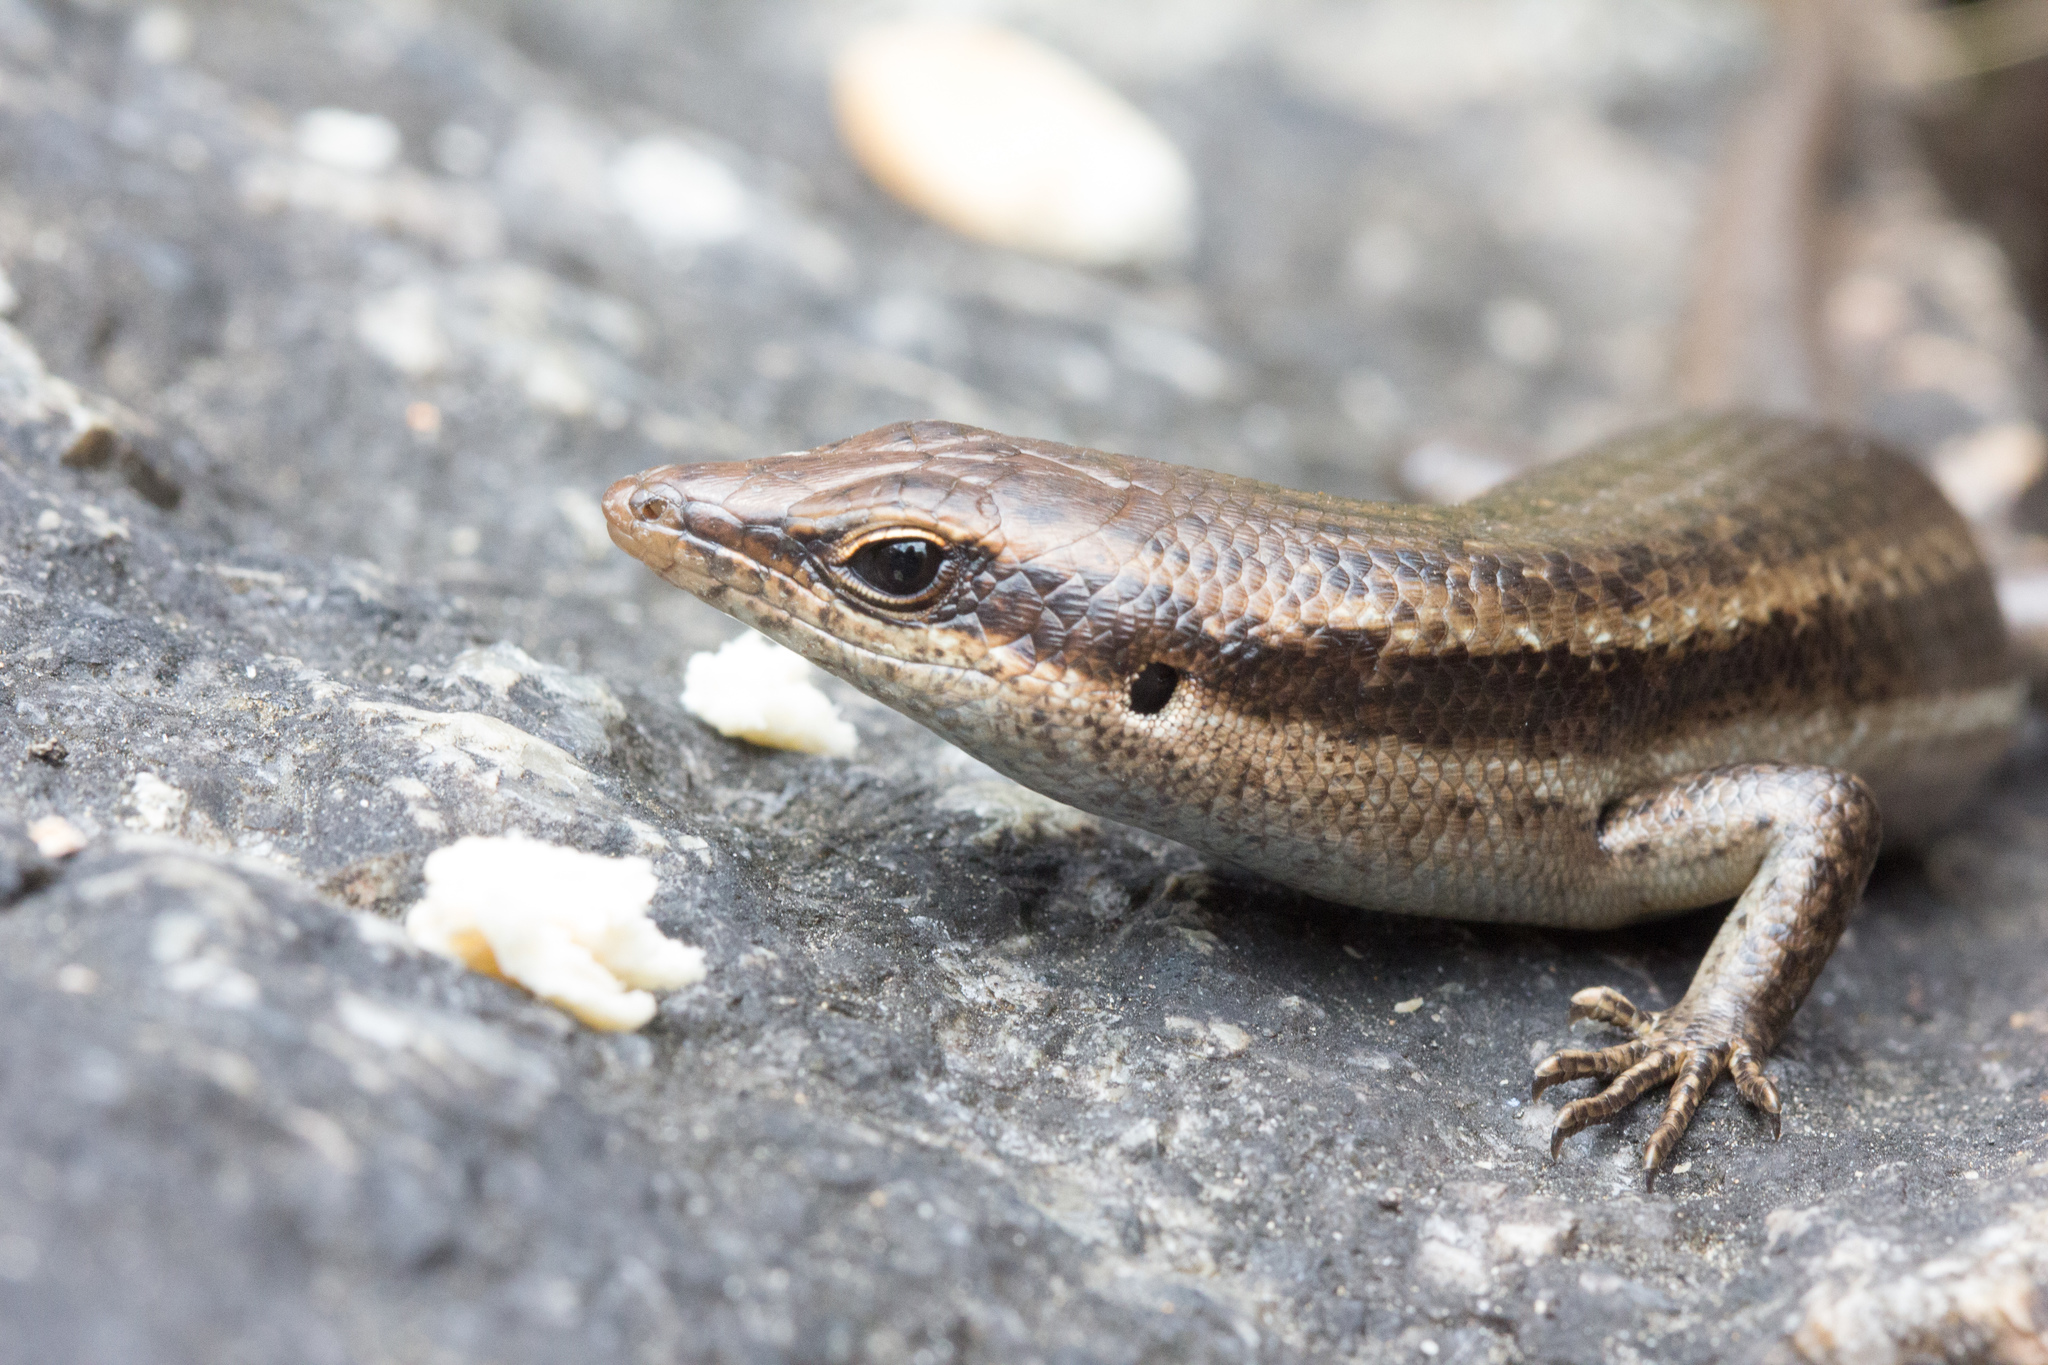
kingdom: Animalia
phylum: Chordata
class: Squamata
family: Scincidae
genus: Trachylepis
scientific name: Trachylepis sechellensis
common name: Seychelles skink
